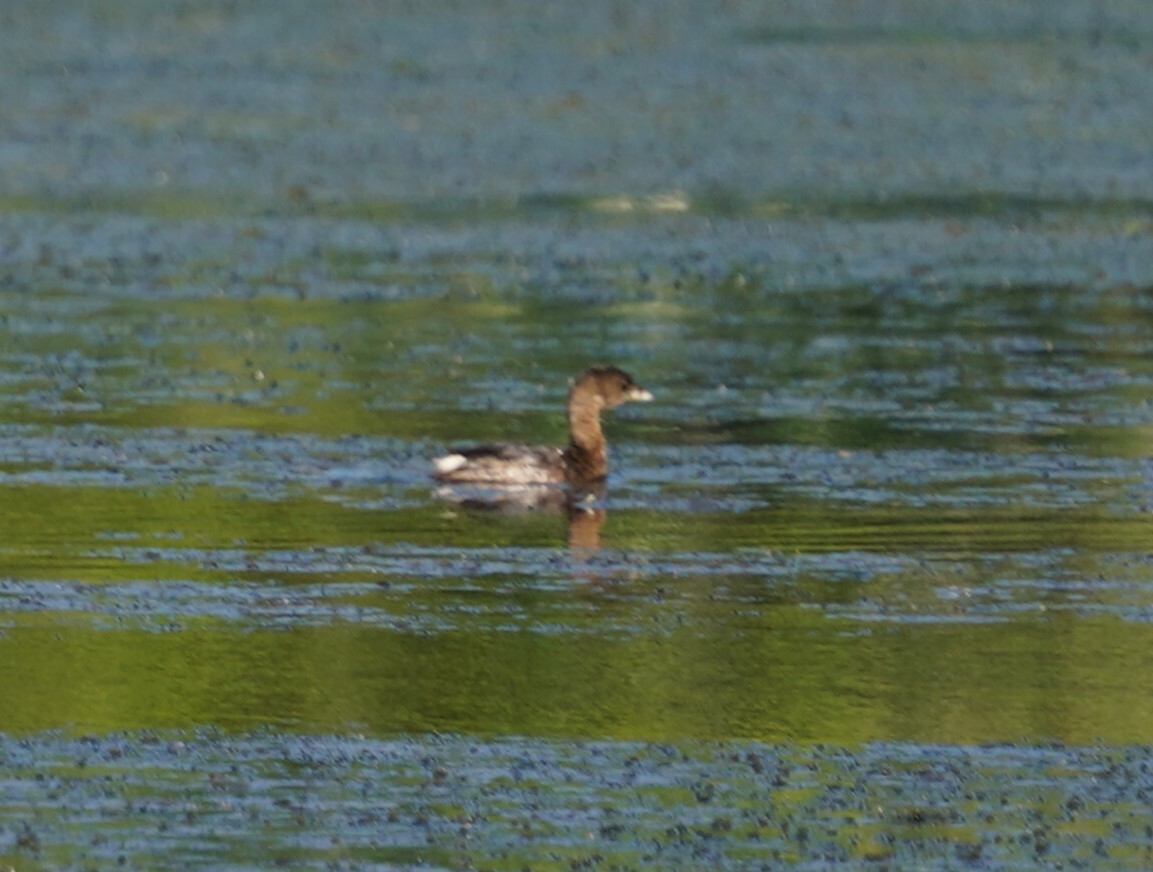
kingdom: Animalia
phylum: Chordata
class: Aves
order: Podicipediformes
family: Podicipedidae
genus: Podilymbus
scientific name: Podilymbus podiceps
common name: Pied-billed grebe
